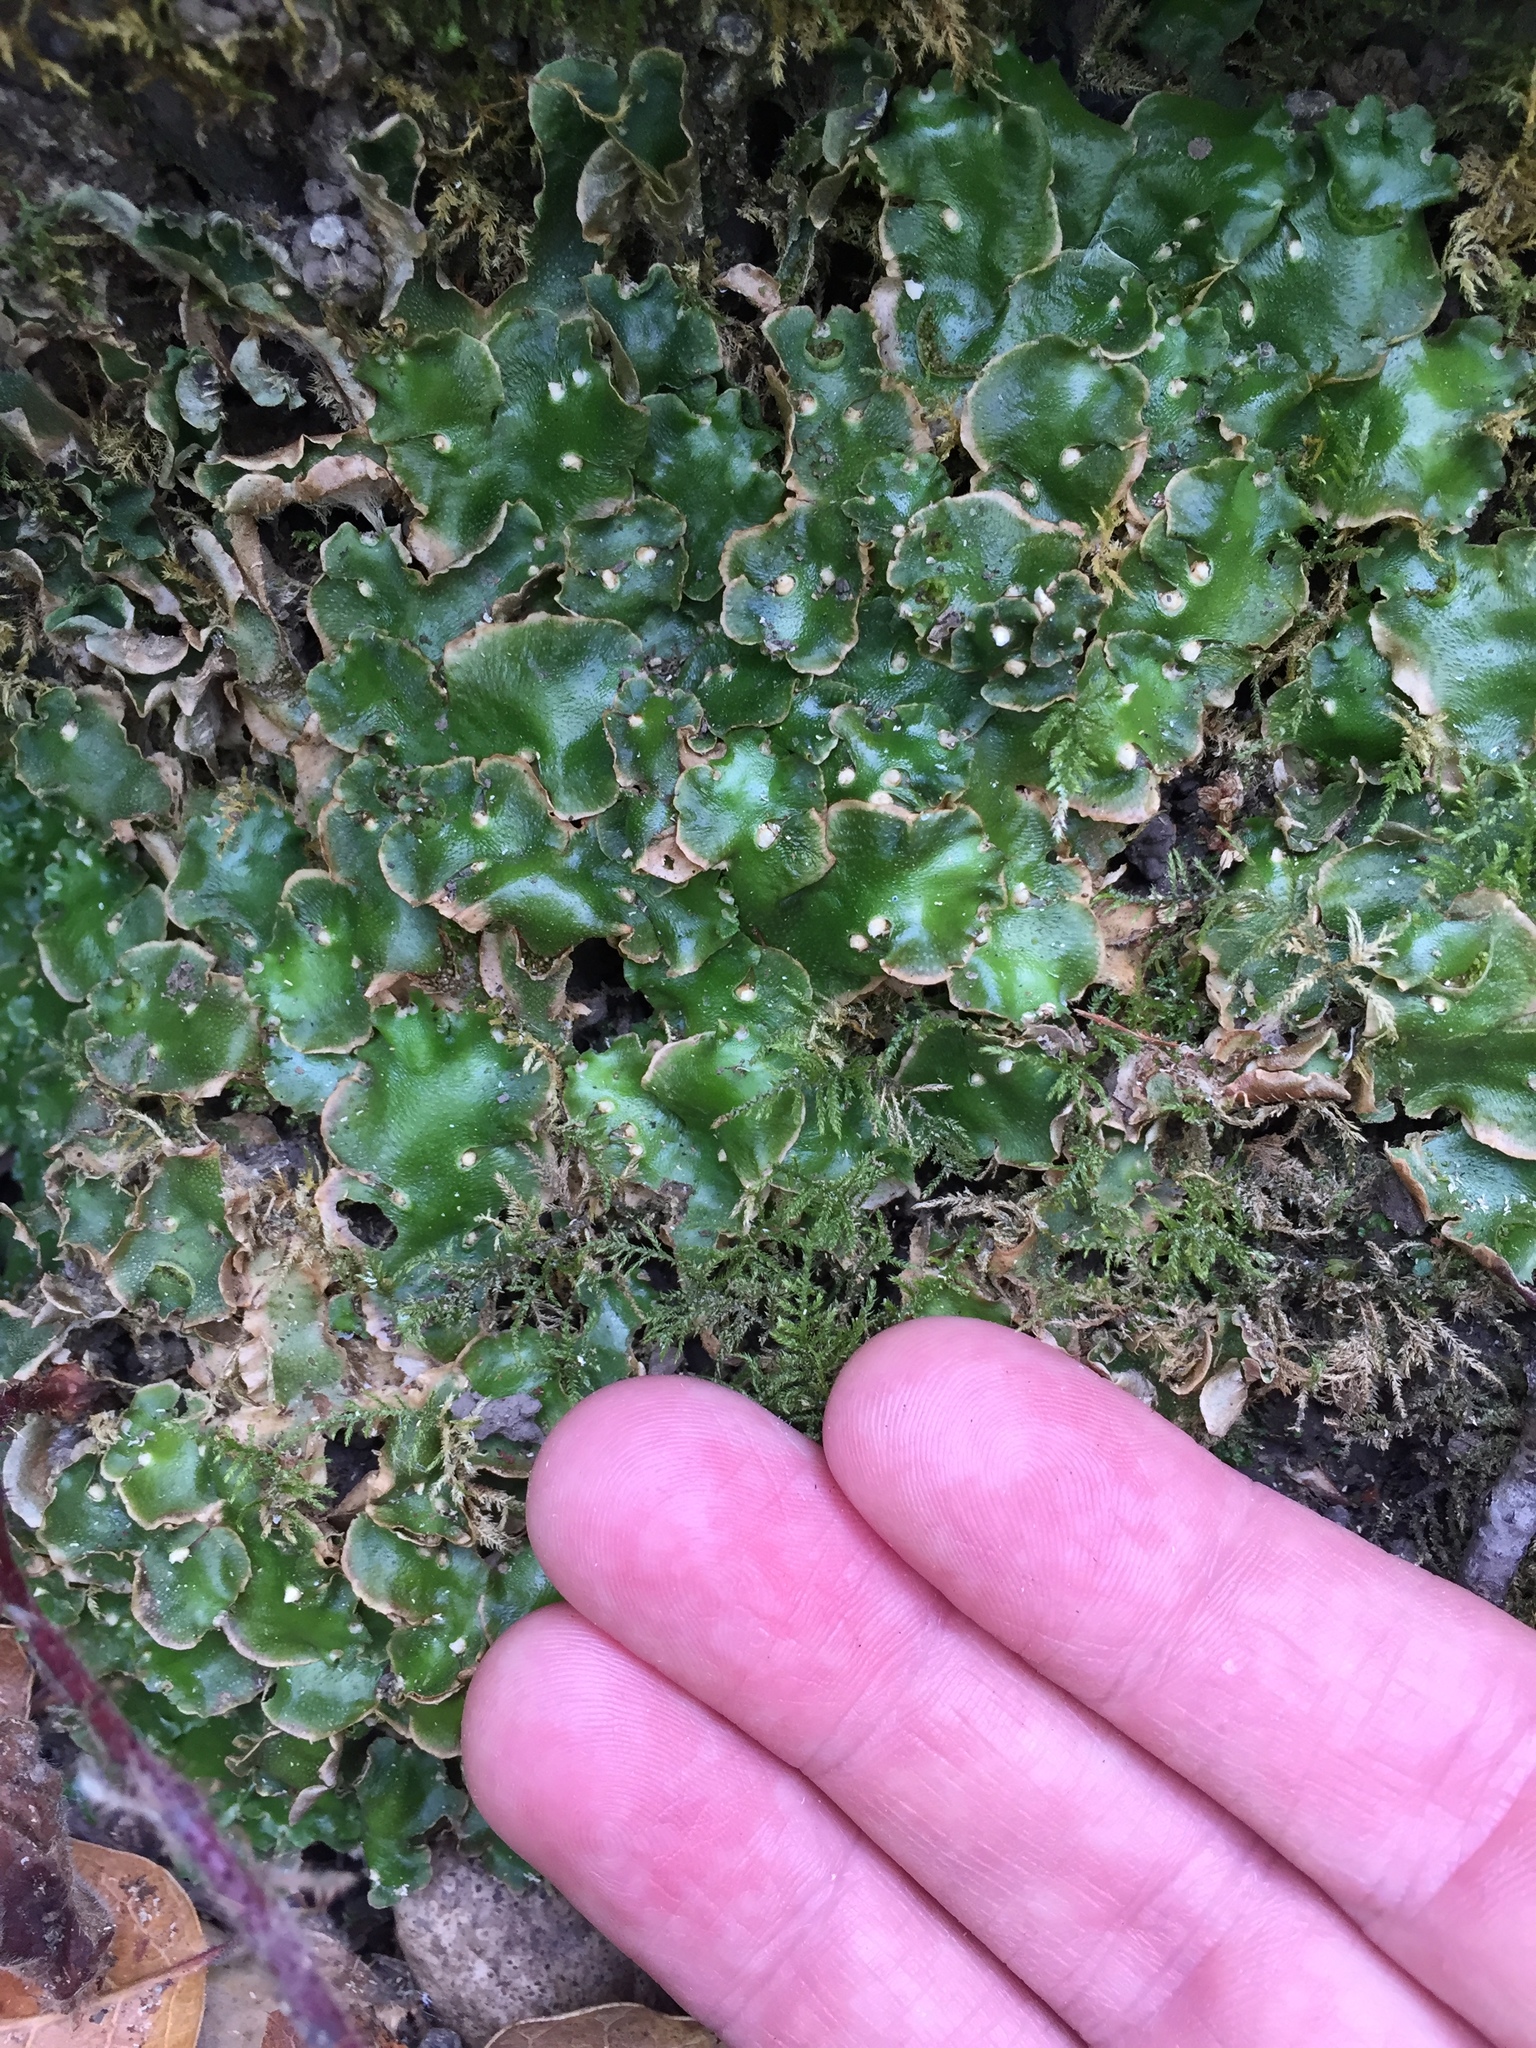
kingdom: Plantae
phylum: Marchantiophyta
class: Marchantiopsida
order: Lunulariales
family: Lunulariaceae
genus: Lunularia
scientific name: Lunularia cruciata
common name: Crescent-cup liverwort
